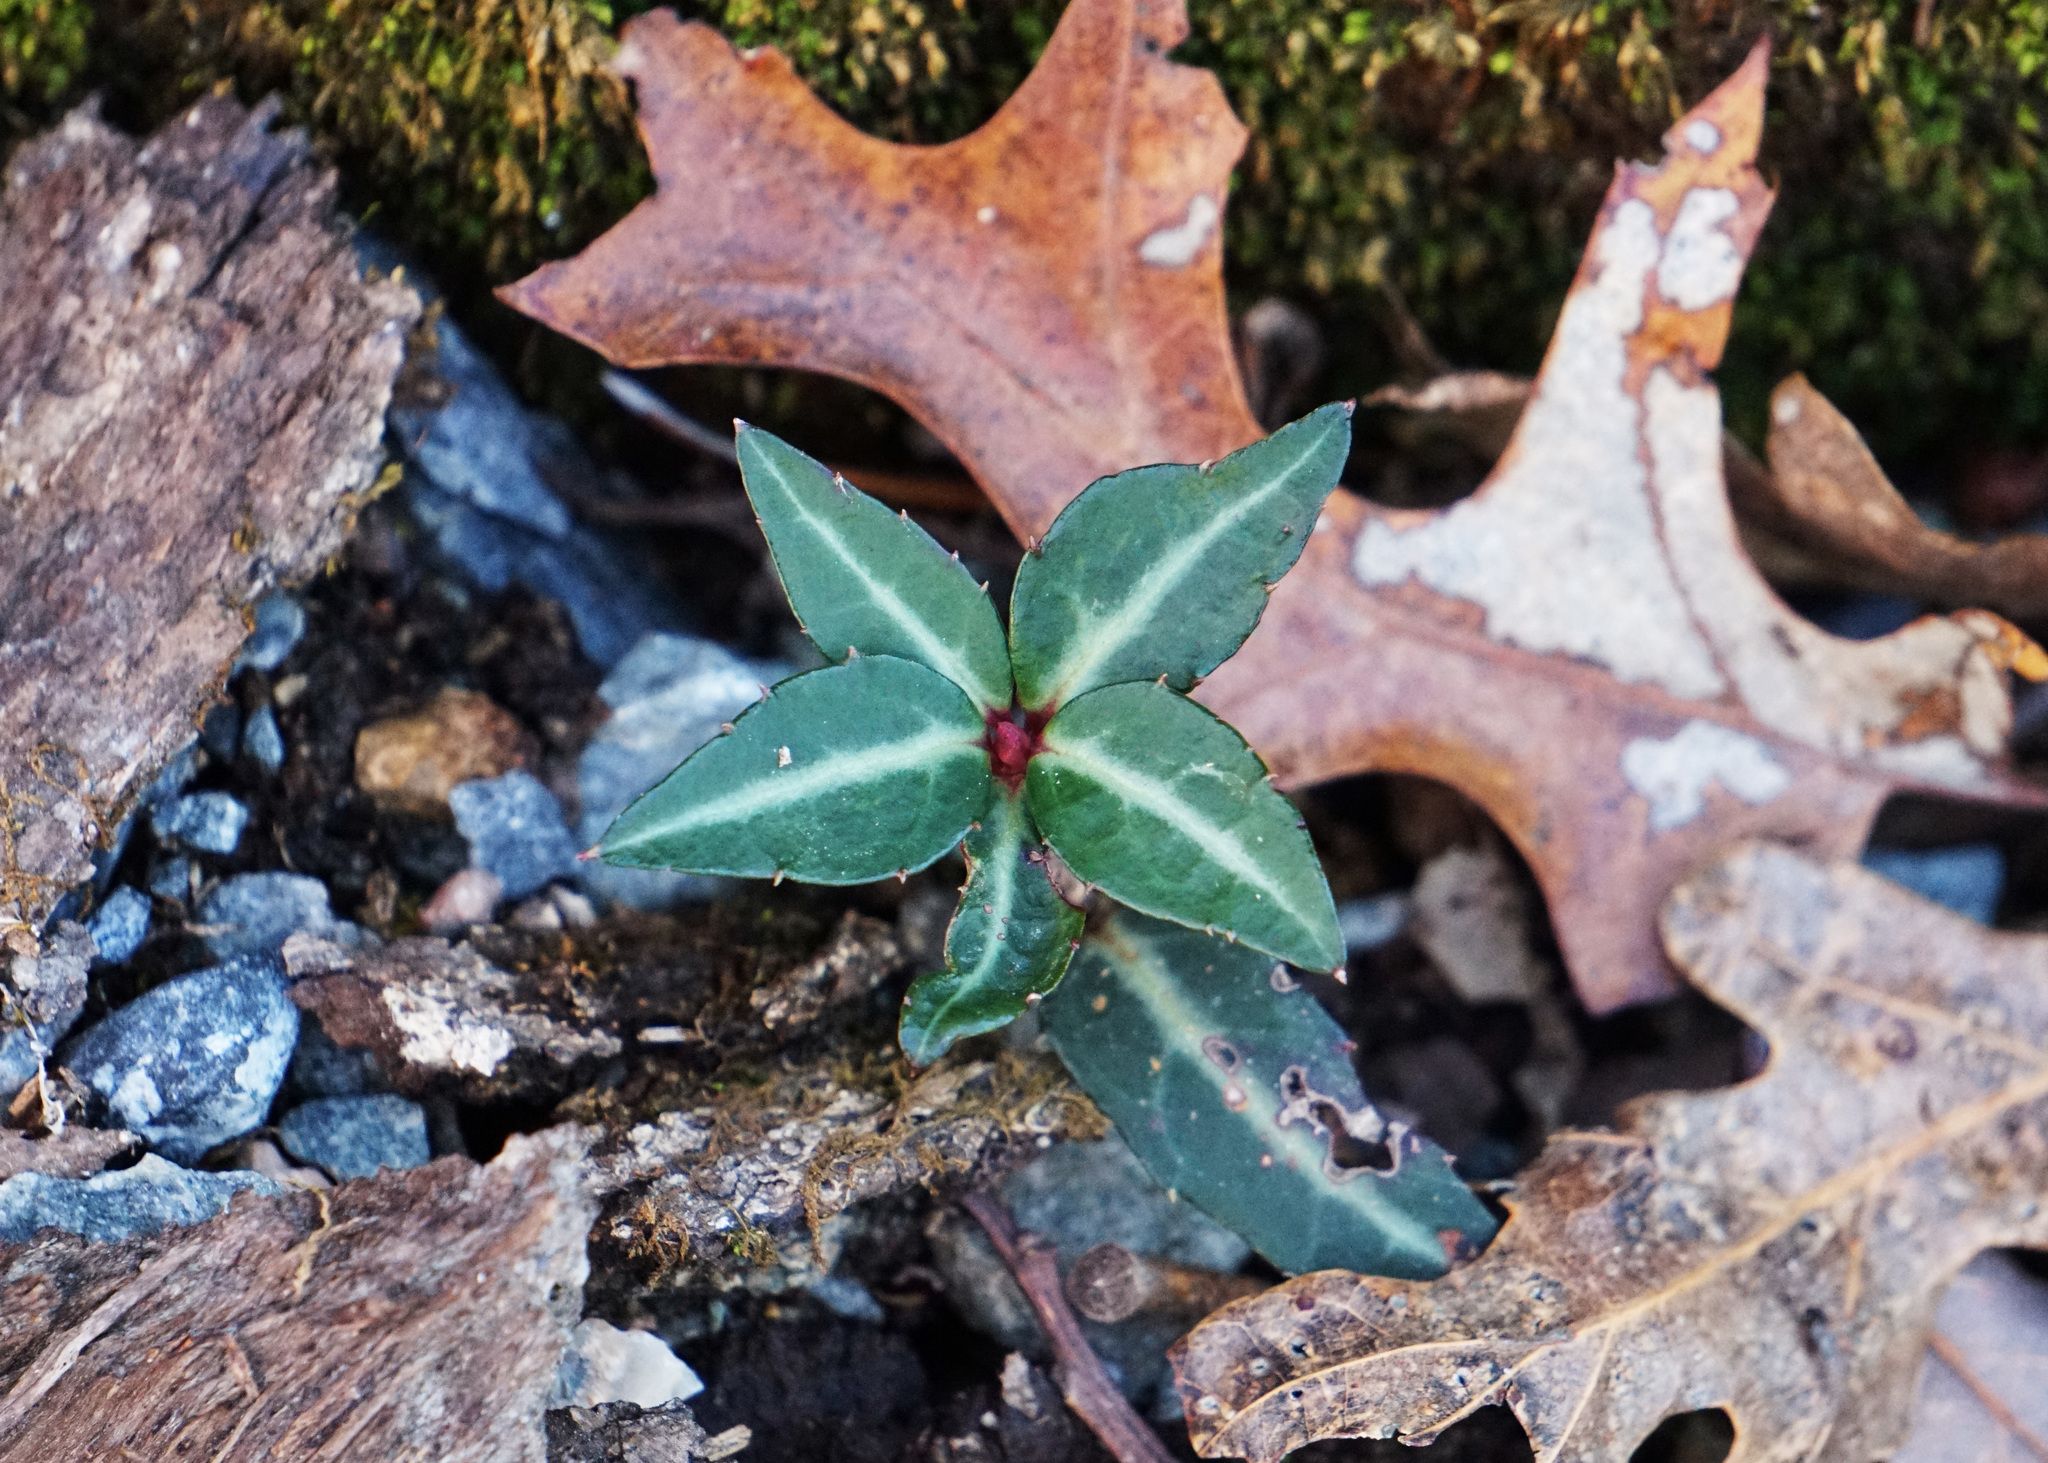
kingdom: Plantae
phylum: Tracheophyta
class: Magnoliopsida
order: Ericales
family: Ericaceae
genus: Chimaphila
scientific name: Chimaphila maculata
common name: Spotted pipsissewa
